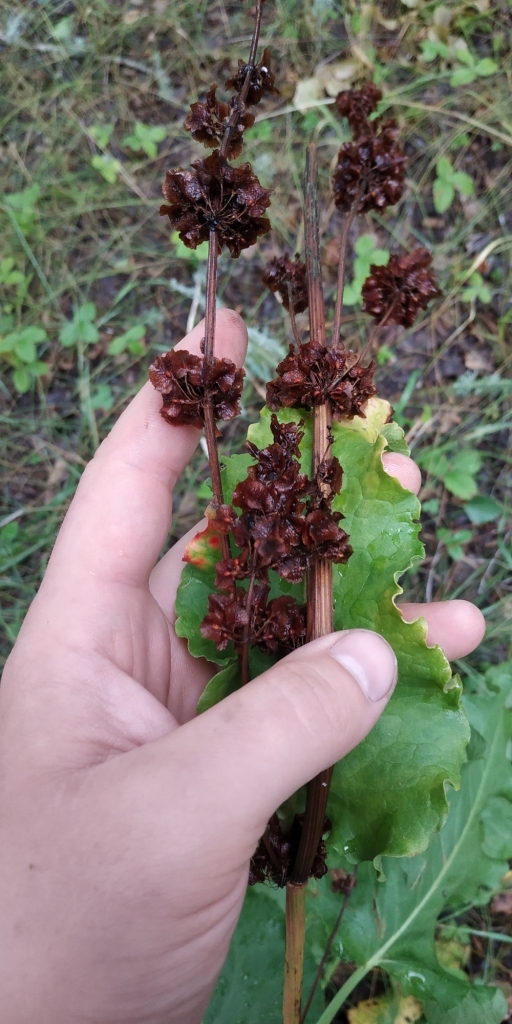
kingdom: Plantae
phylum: Tracheophyta
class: Magnoliopsida
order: Caryophyllales
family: Polygonaceae
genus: Rumex
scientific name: Rumex confertus
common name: Russian dock
